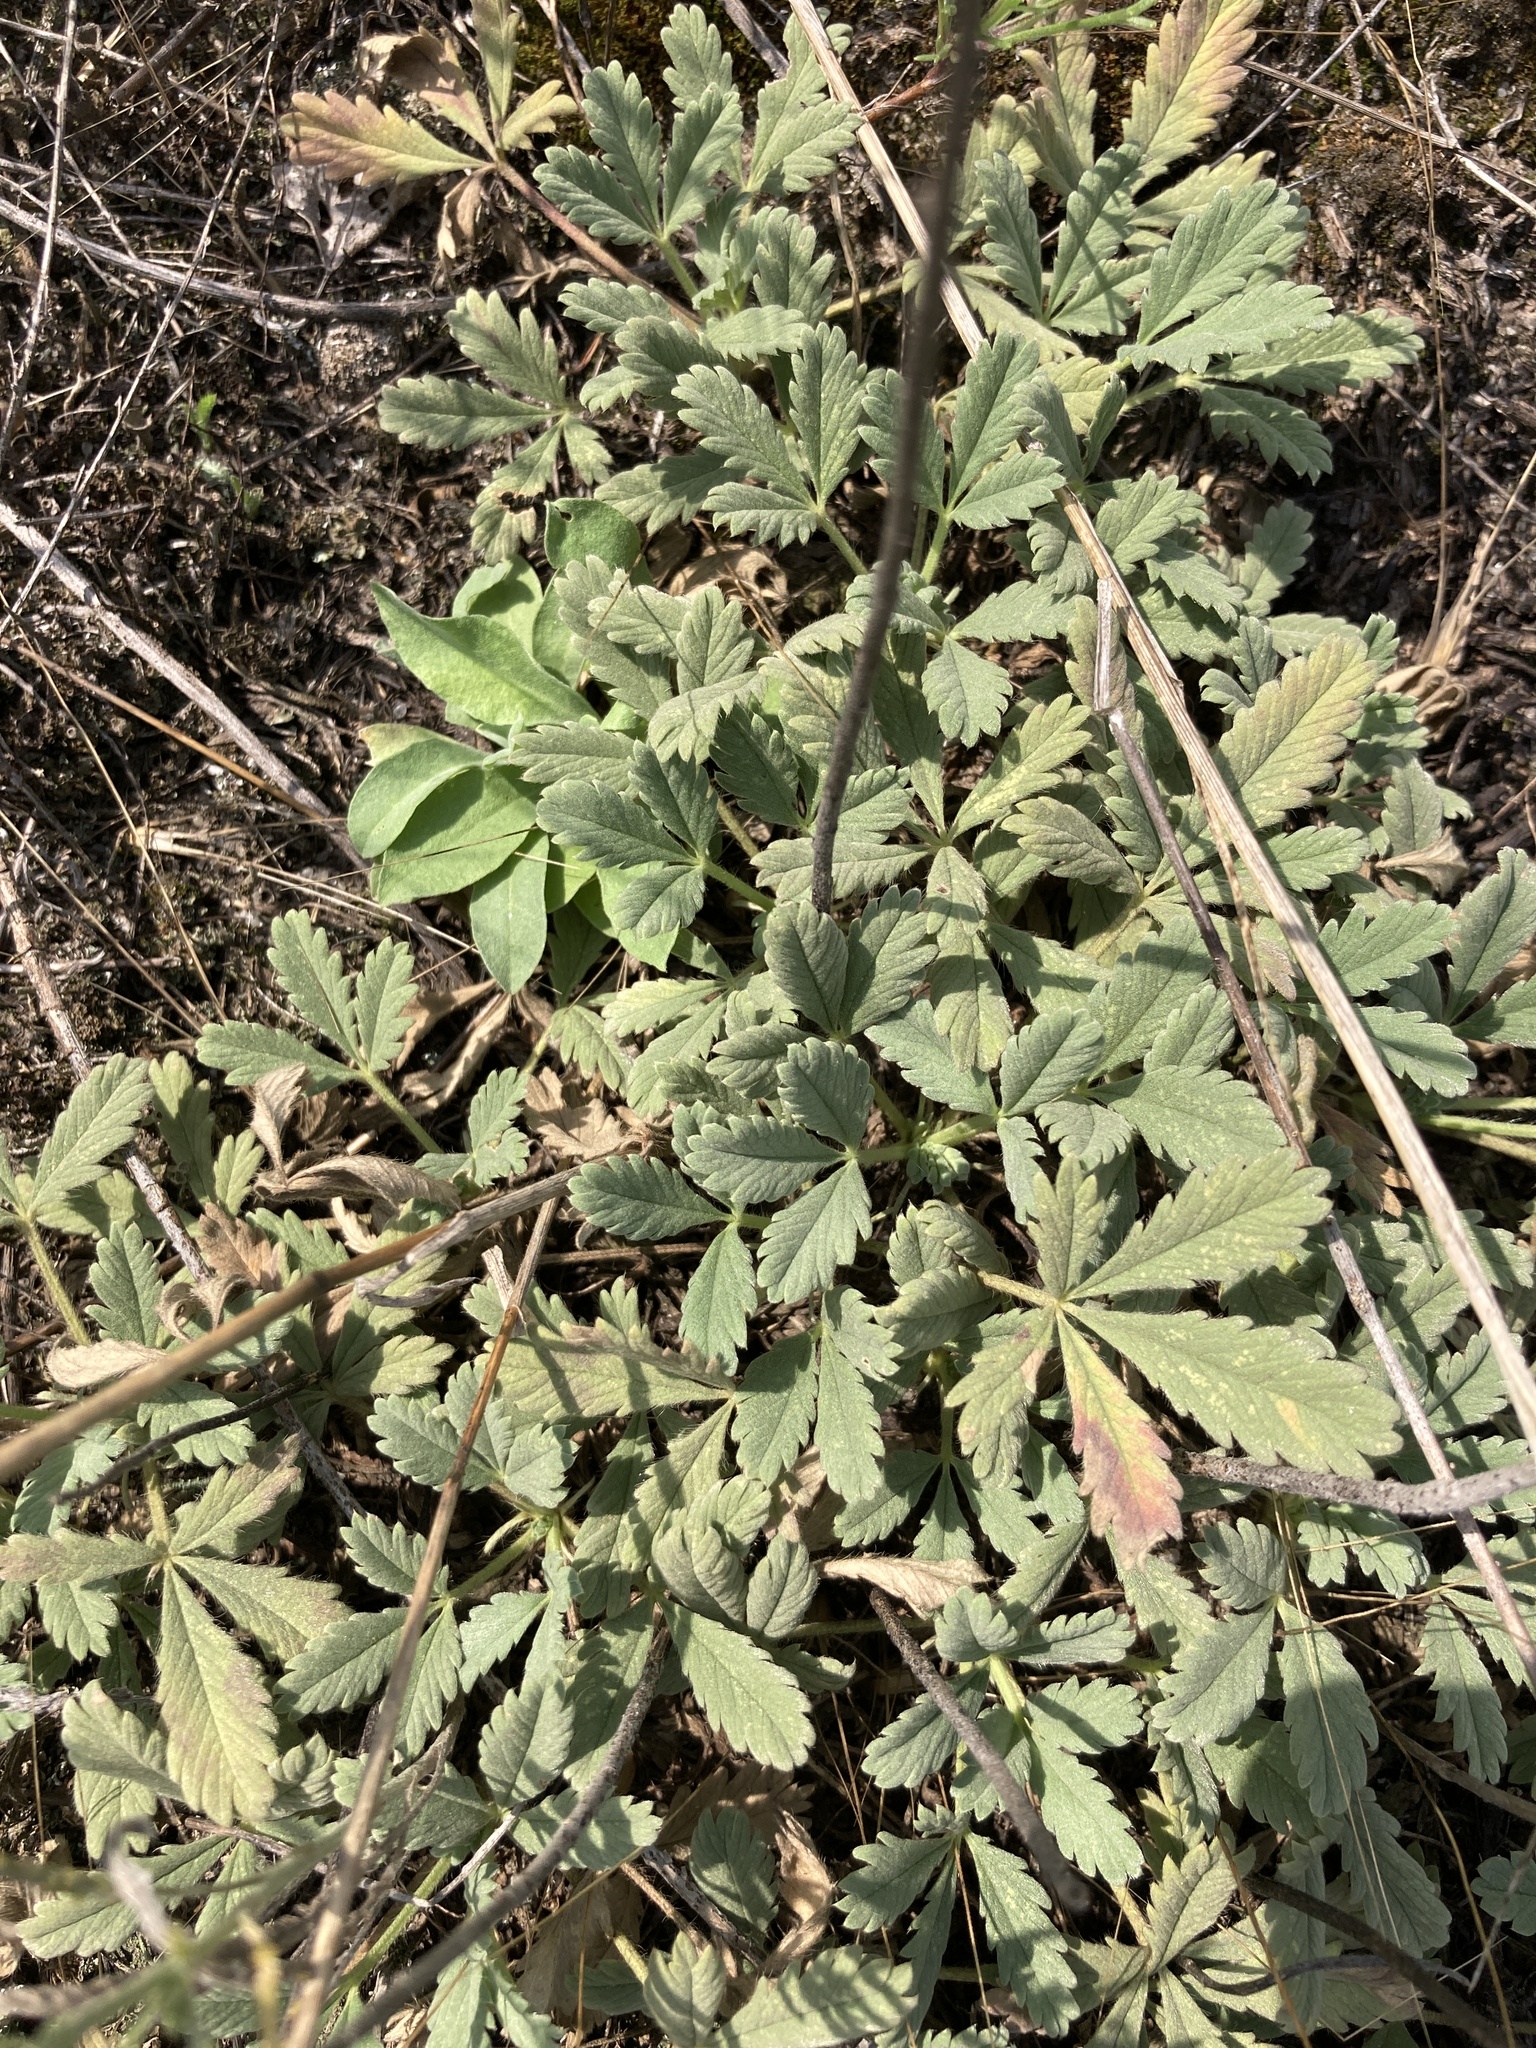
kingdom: Plantae
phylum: Tracheophyta
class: Magnoliopsida
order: Rosales
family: Rosaceae
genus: Potentilla
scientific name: Potentilla incana
